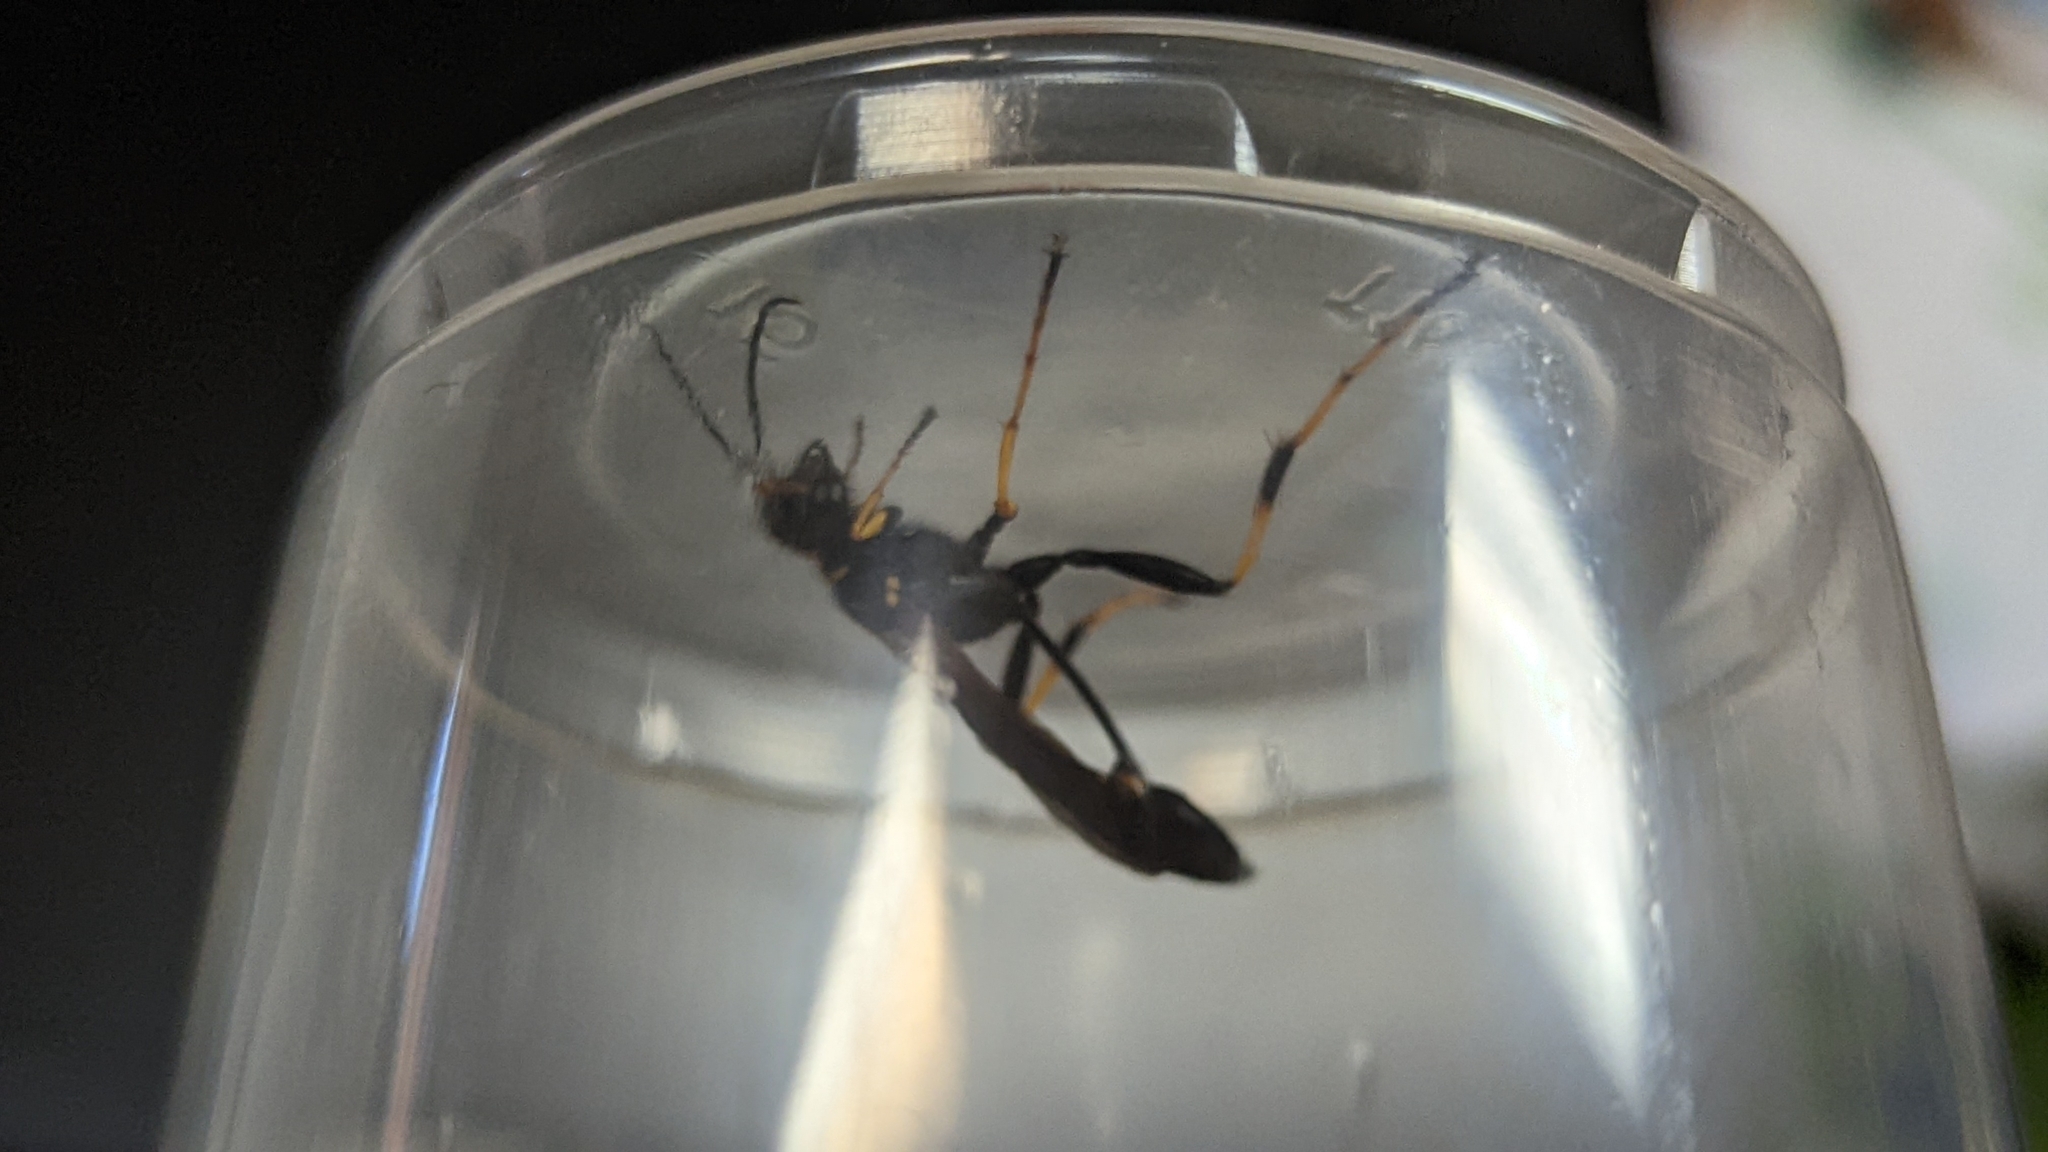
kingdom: Animalia
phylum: Arthropoda
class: Insecta
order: Hymenoptera
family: Sphecidae
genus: Sceliphron
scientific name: Sceliphron caementarium
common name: Mud dauber
